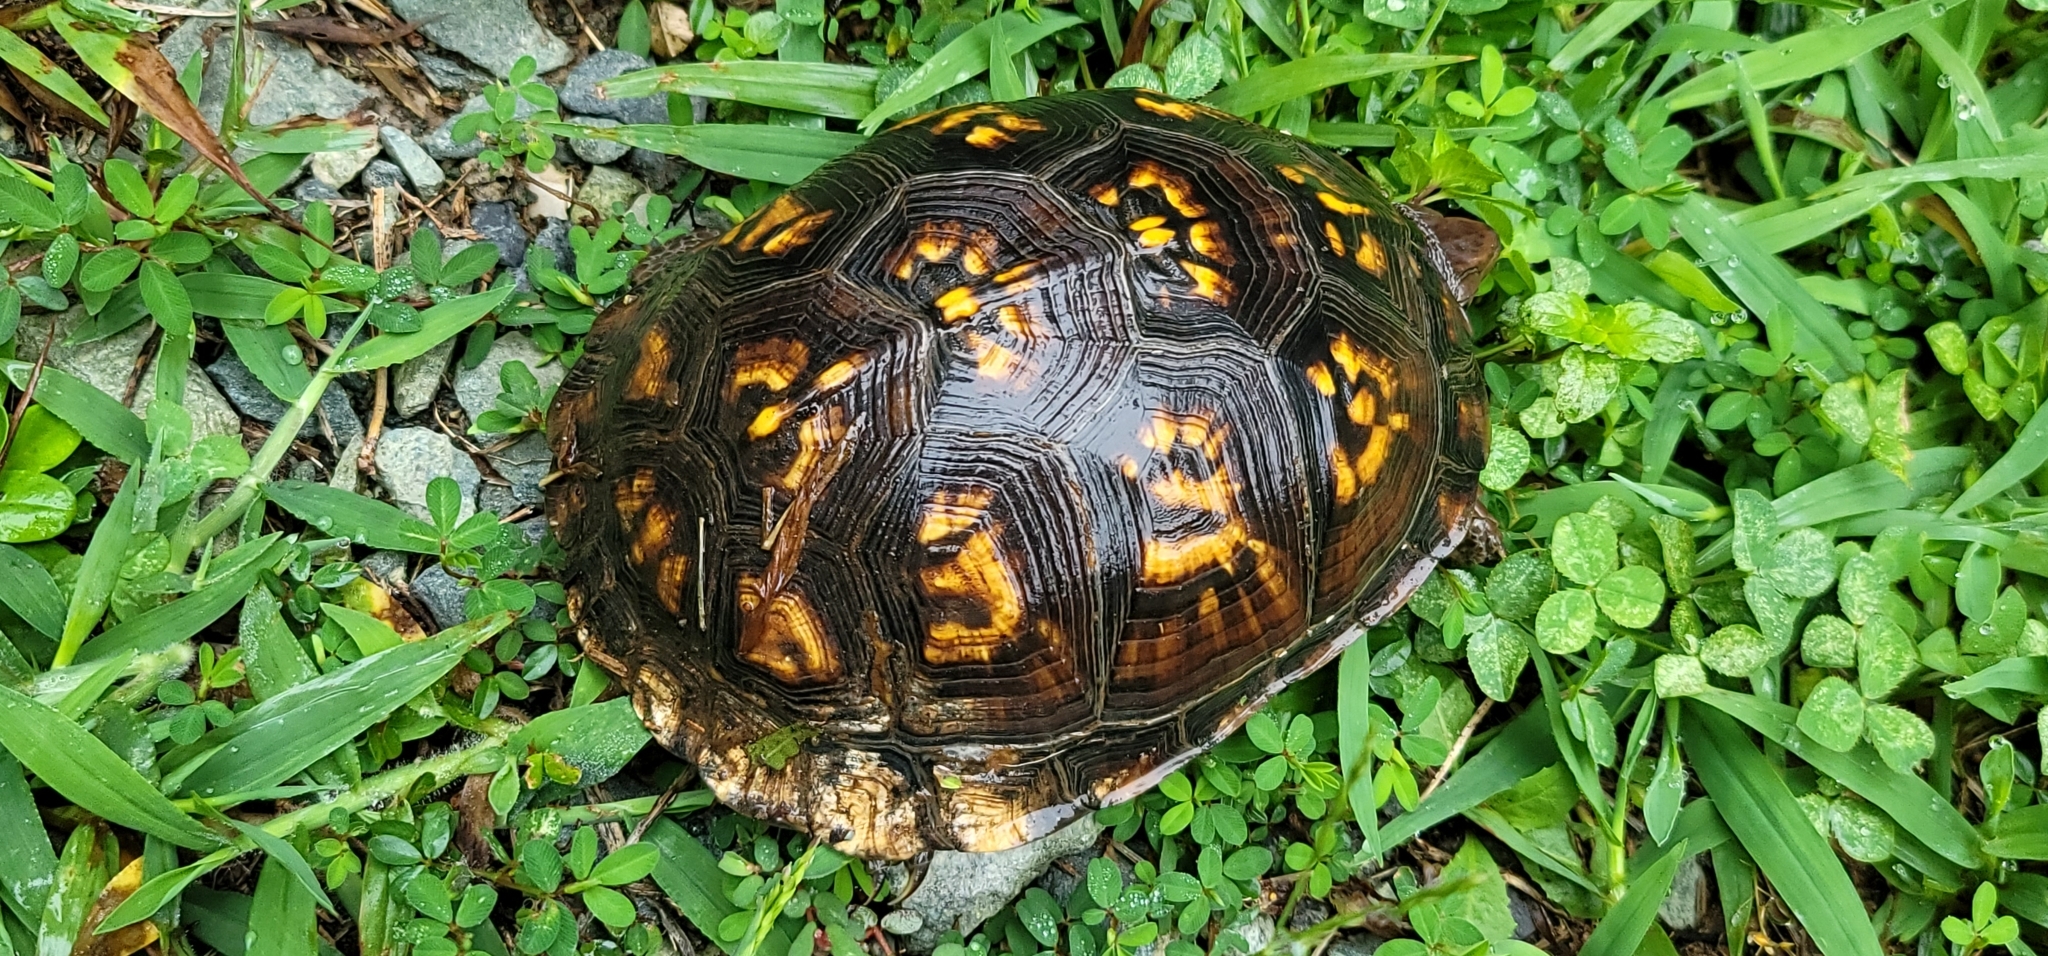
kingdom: Animalia
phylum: Chordata
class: Testudines
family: Emydidae
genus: Terrapene
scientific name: Terrapene carolina
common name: Common box turtle
